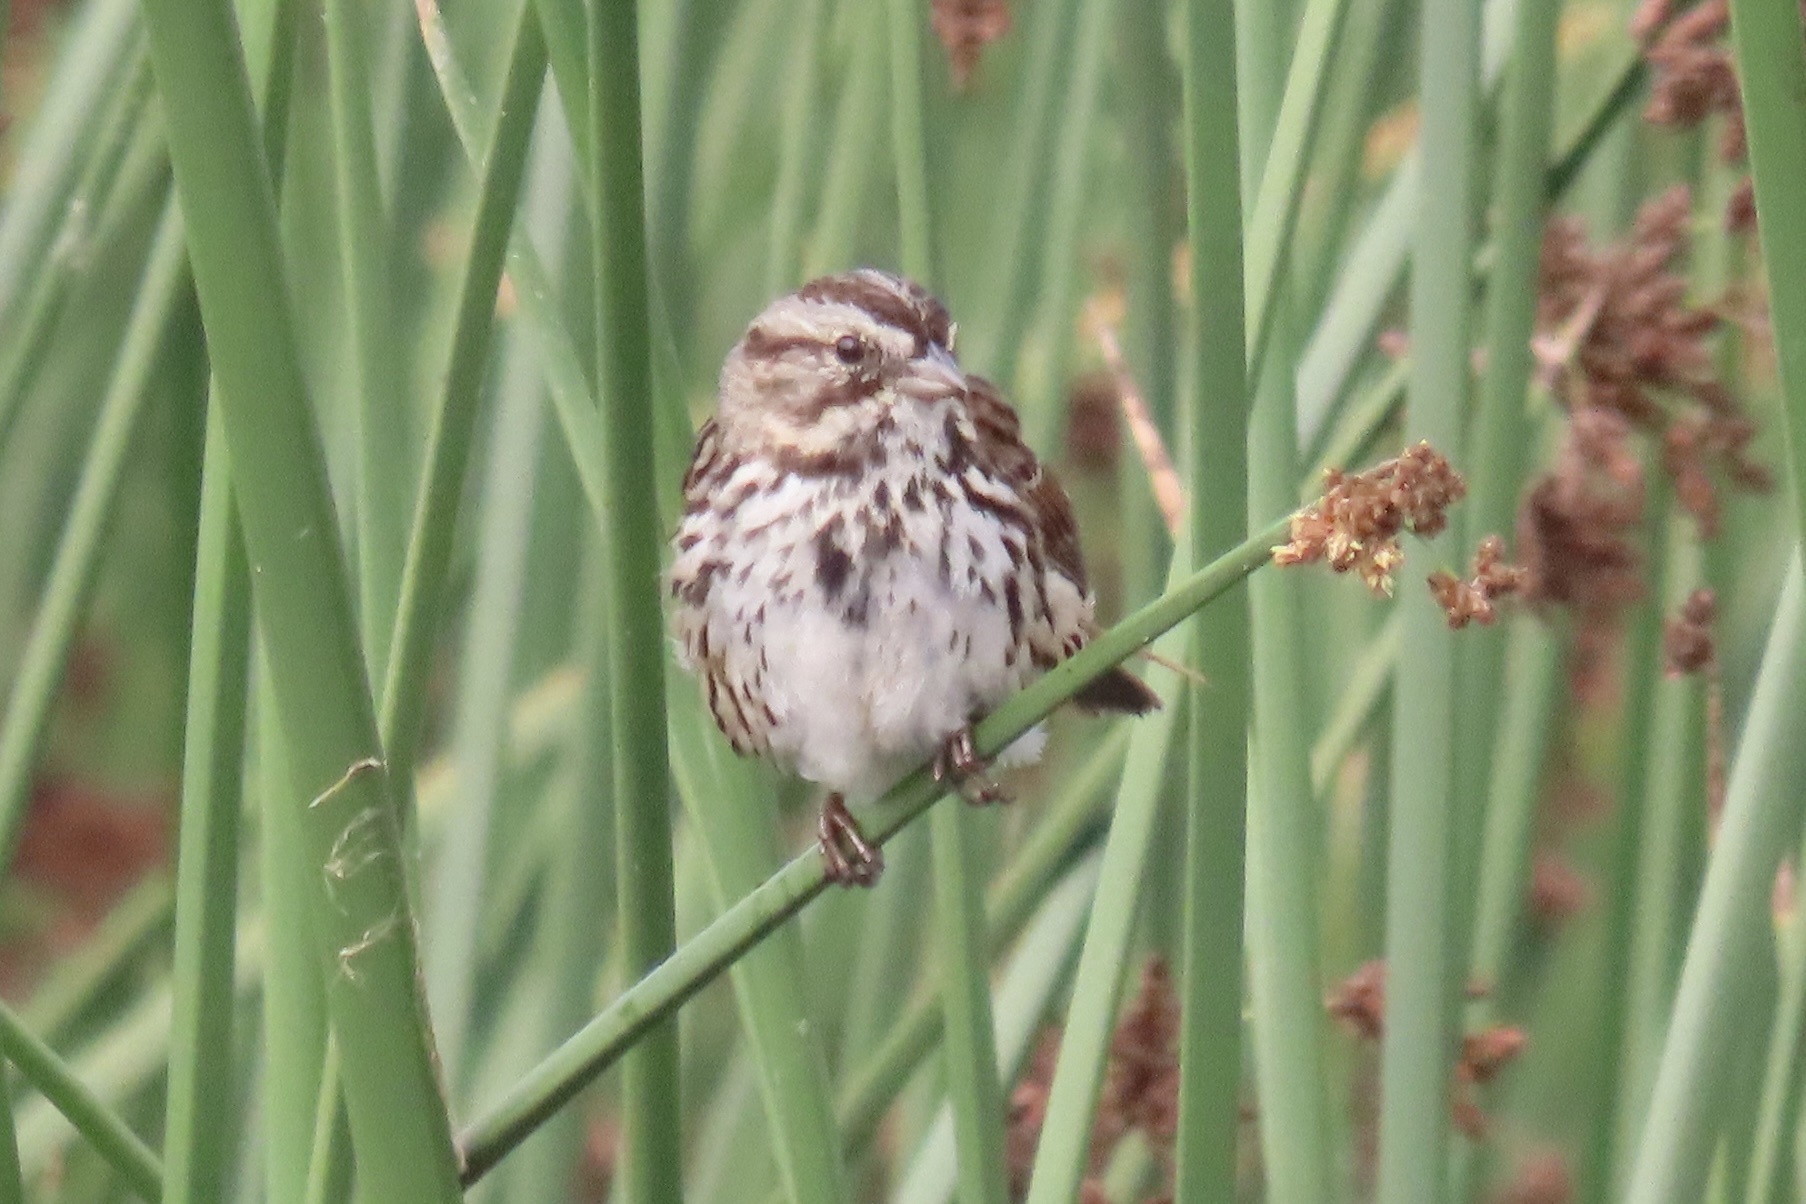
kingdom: Animalia
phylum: Chordata
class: Aves
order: Passeriformes
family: Passerellidae
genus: Melospiza
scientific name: Melospiza melodia
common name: Song sparrow
